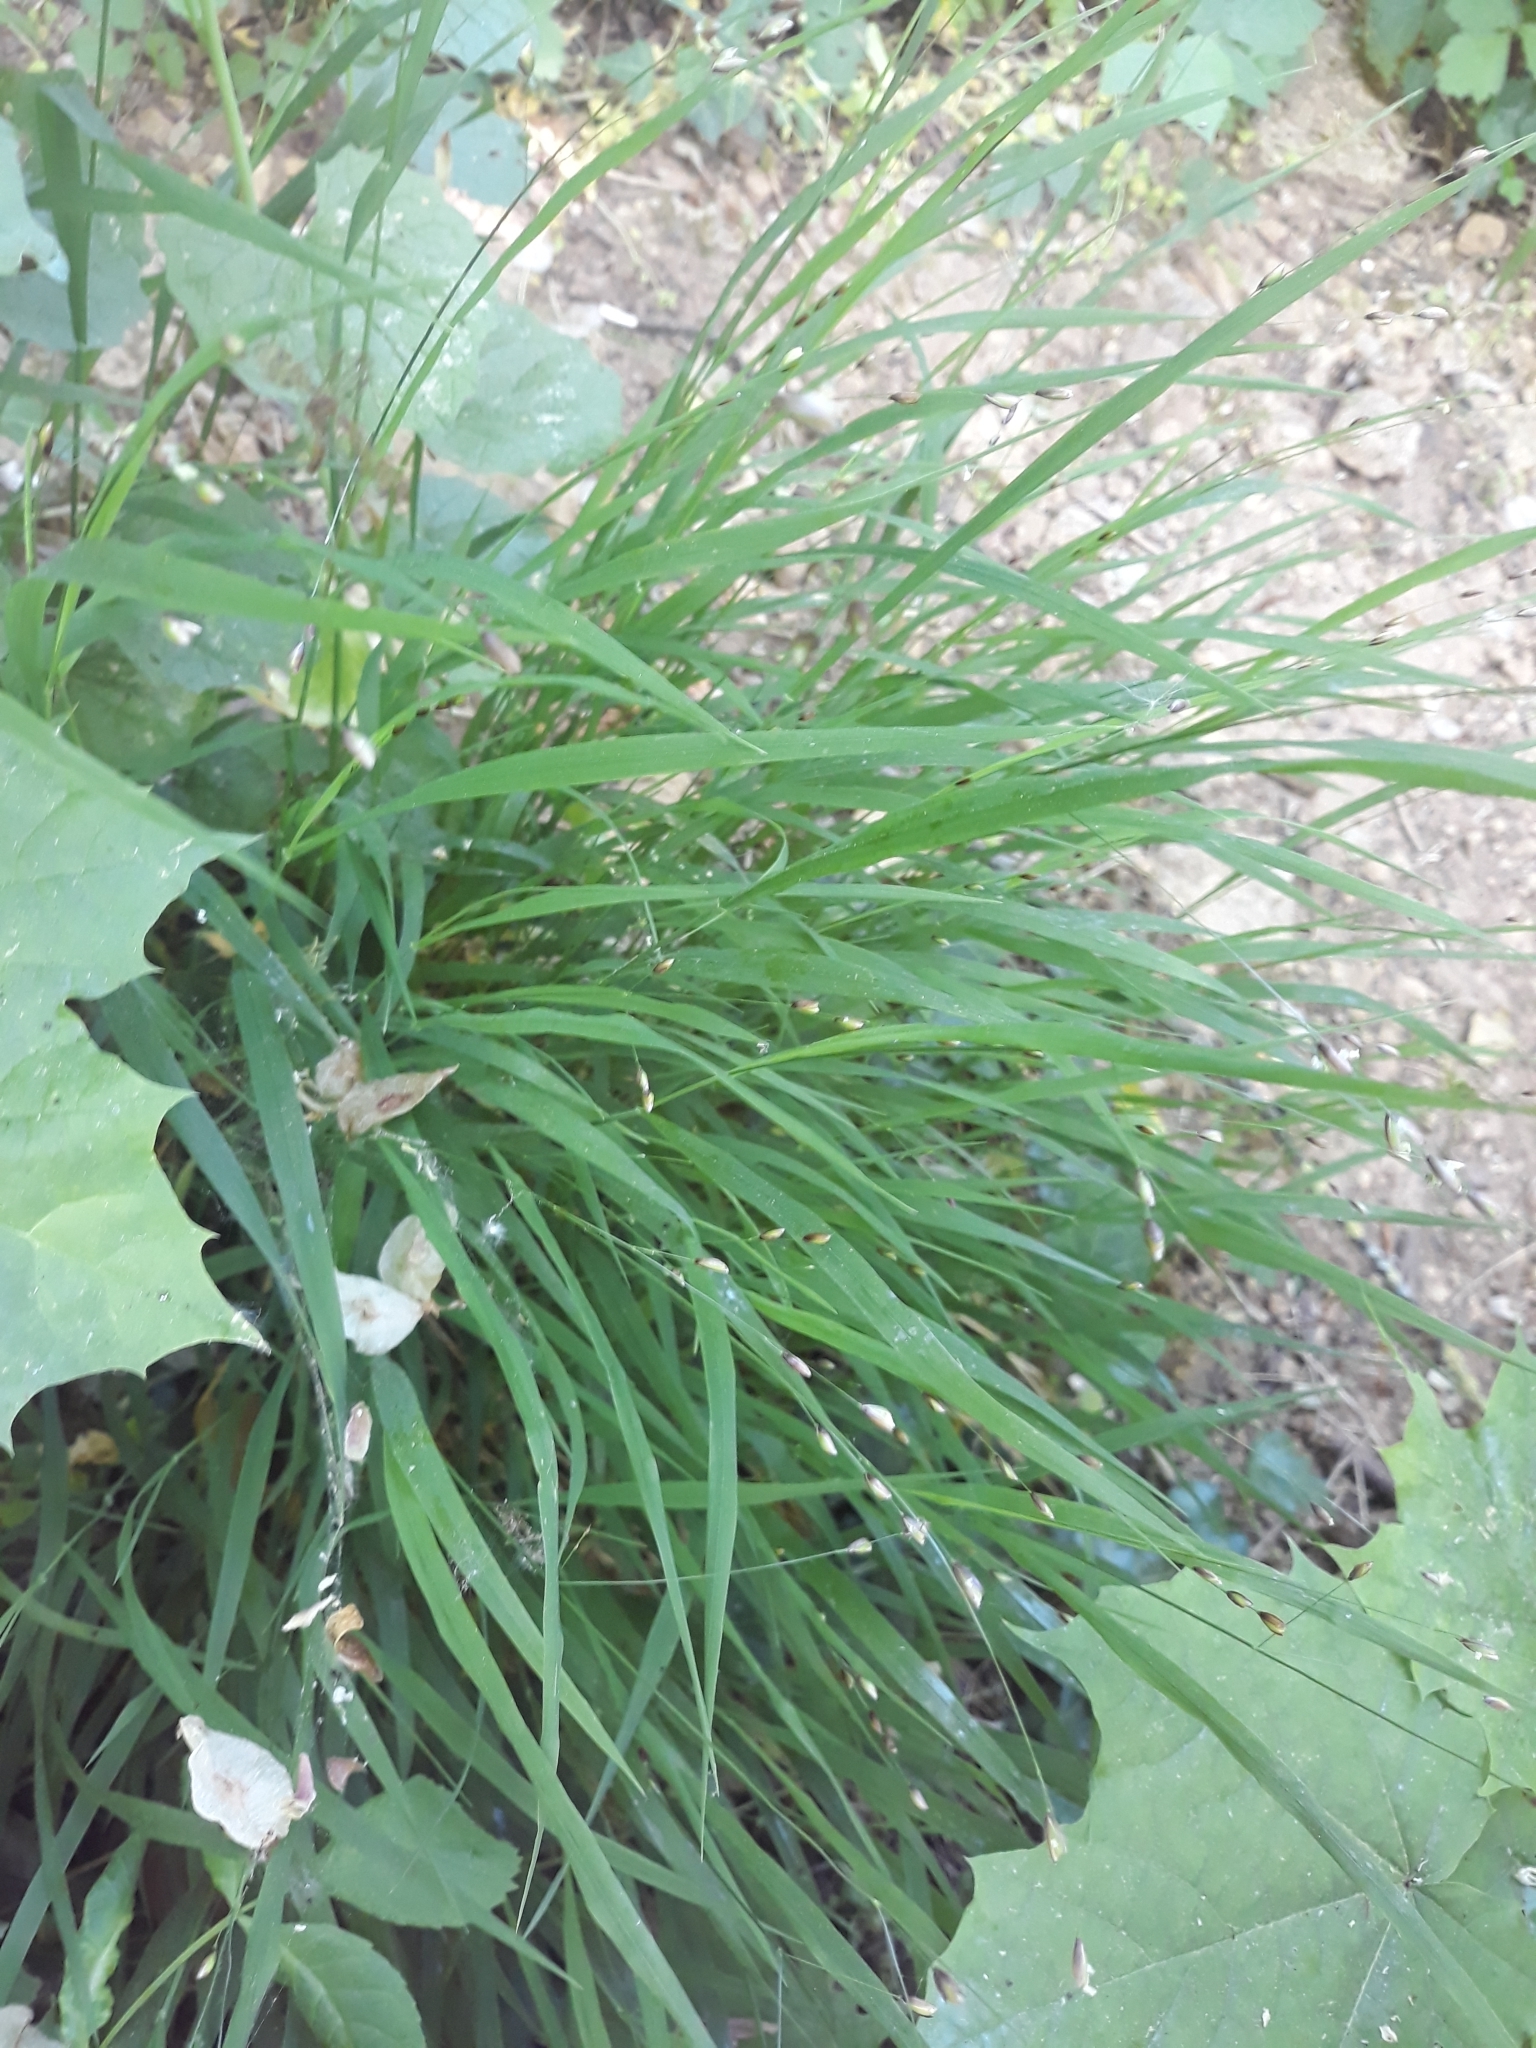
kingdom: Plantae
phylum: Tracheophyta
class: Liliopsida
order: Poales
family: Poaceae
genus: Melica
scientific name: Melica uniflora
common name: Wood melick
